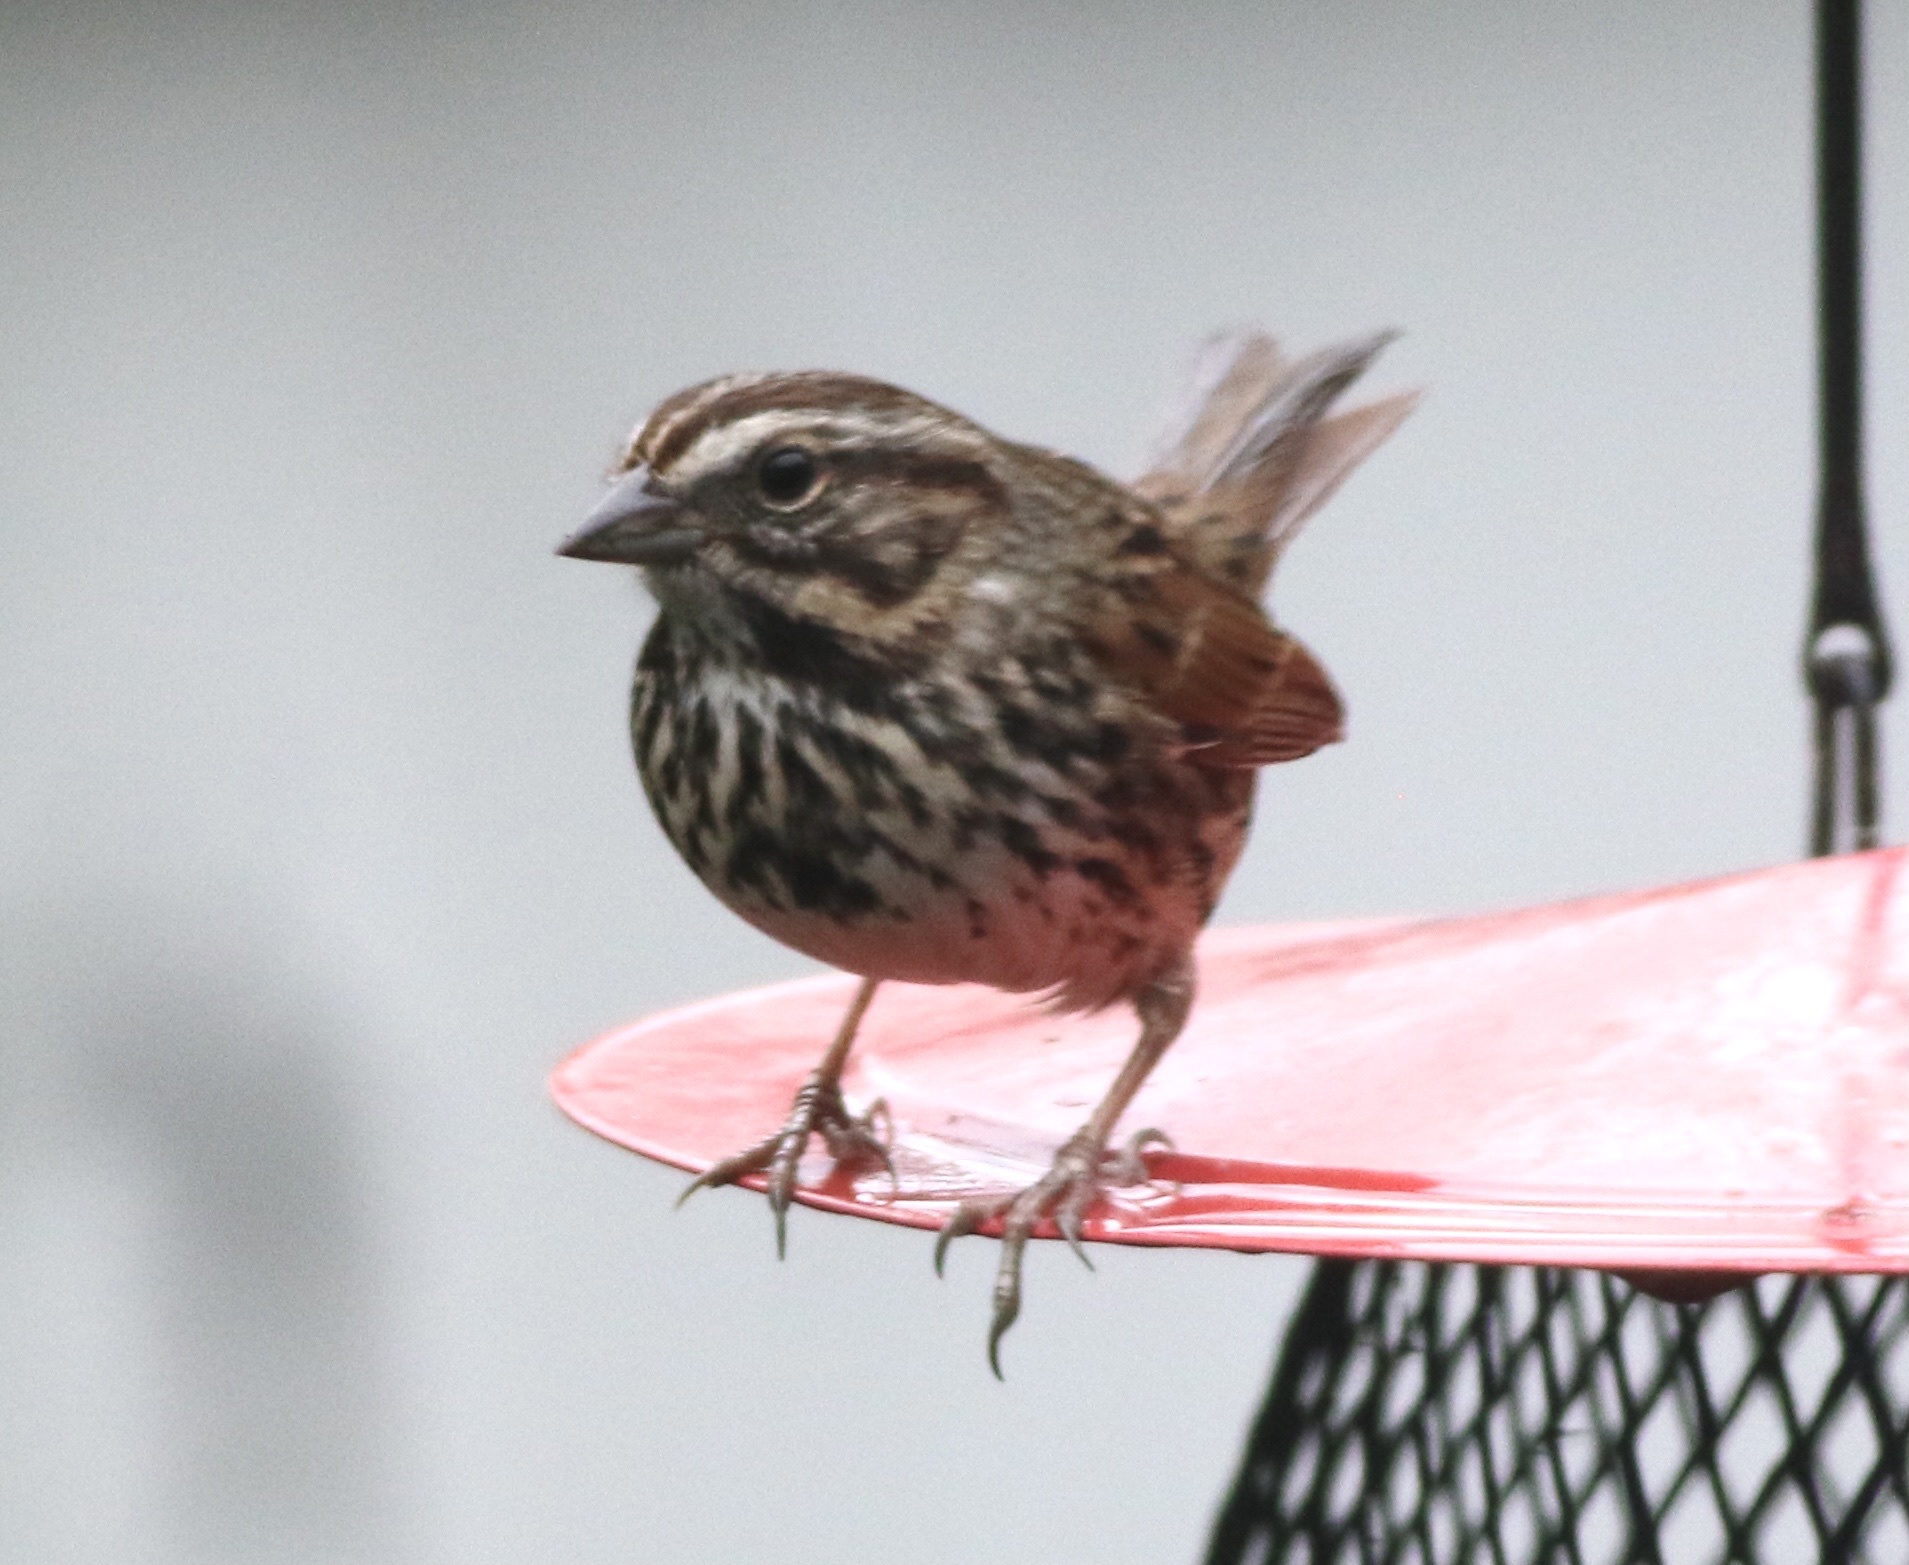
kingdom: Animalia
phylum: Chordata
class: Aves
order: Passeriformes
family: Passerellidae
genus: Melospiza
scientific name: Melospiza melodia
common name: Song sparrow
